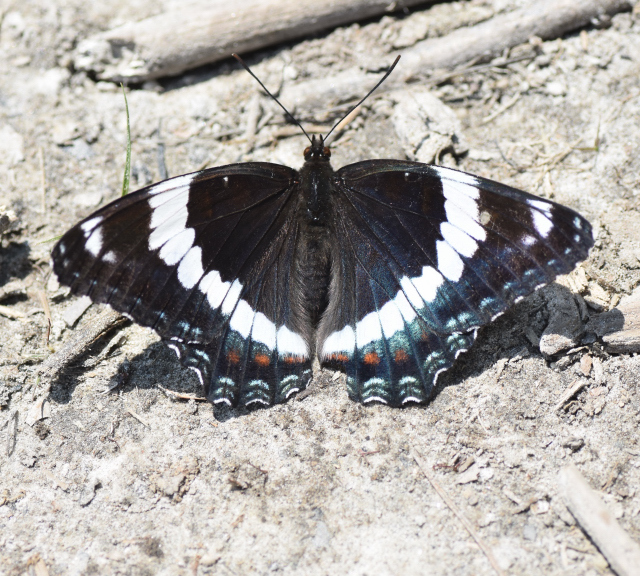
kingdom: Animalia
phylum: Arthropoda
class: Insecta
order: Lepidoptera
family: Nymphalidae
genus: Limenitis
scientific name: Limenitis arthemis
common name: Red-spotted admiral
